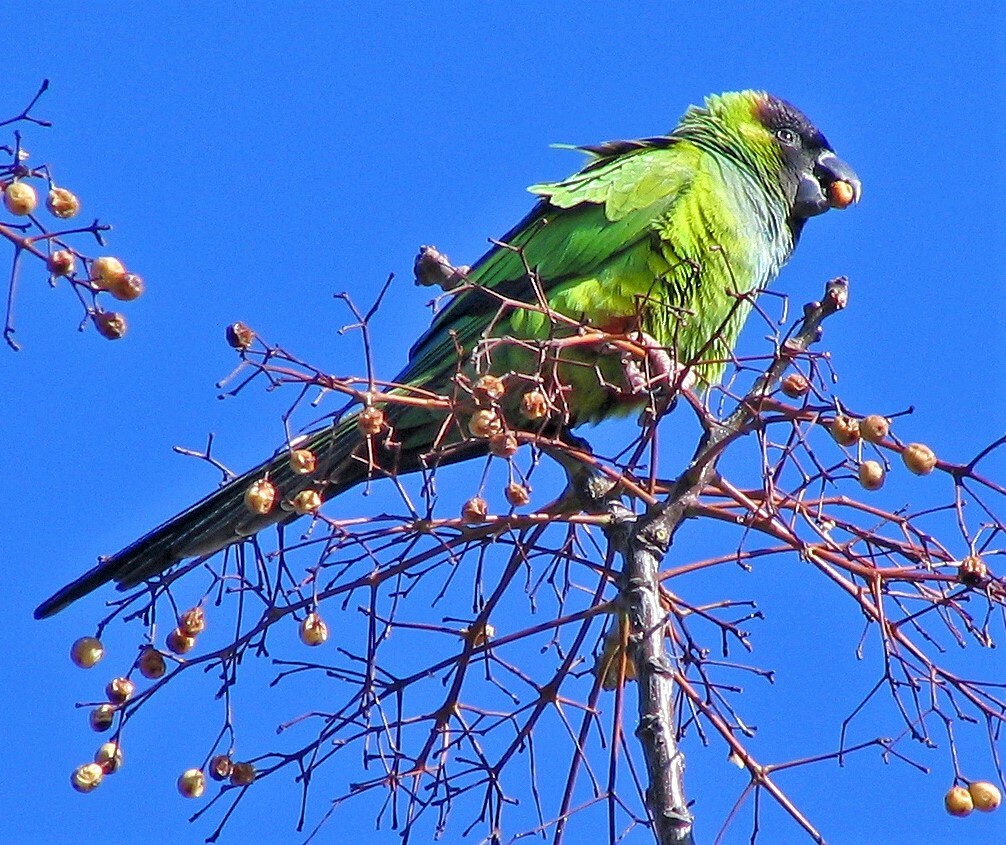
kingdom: Animalia
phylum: Chordata
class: Aves
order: Psittaciformes
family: Psittacidae
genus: Nandayus
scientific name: Nandayus nenday
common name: Nanday parakeet
